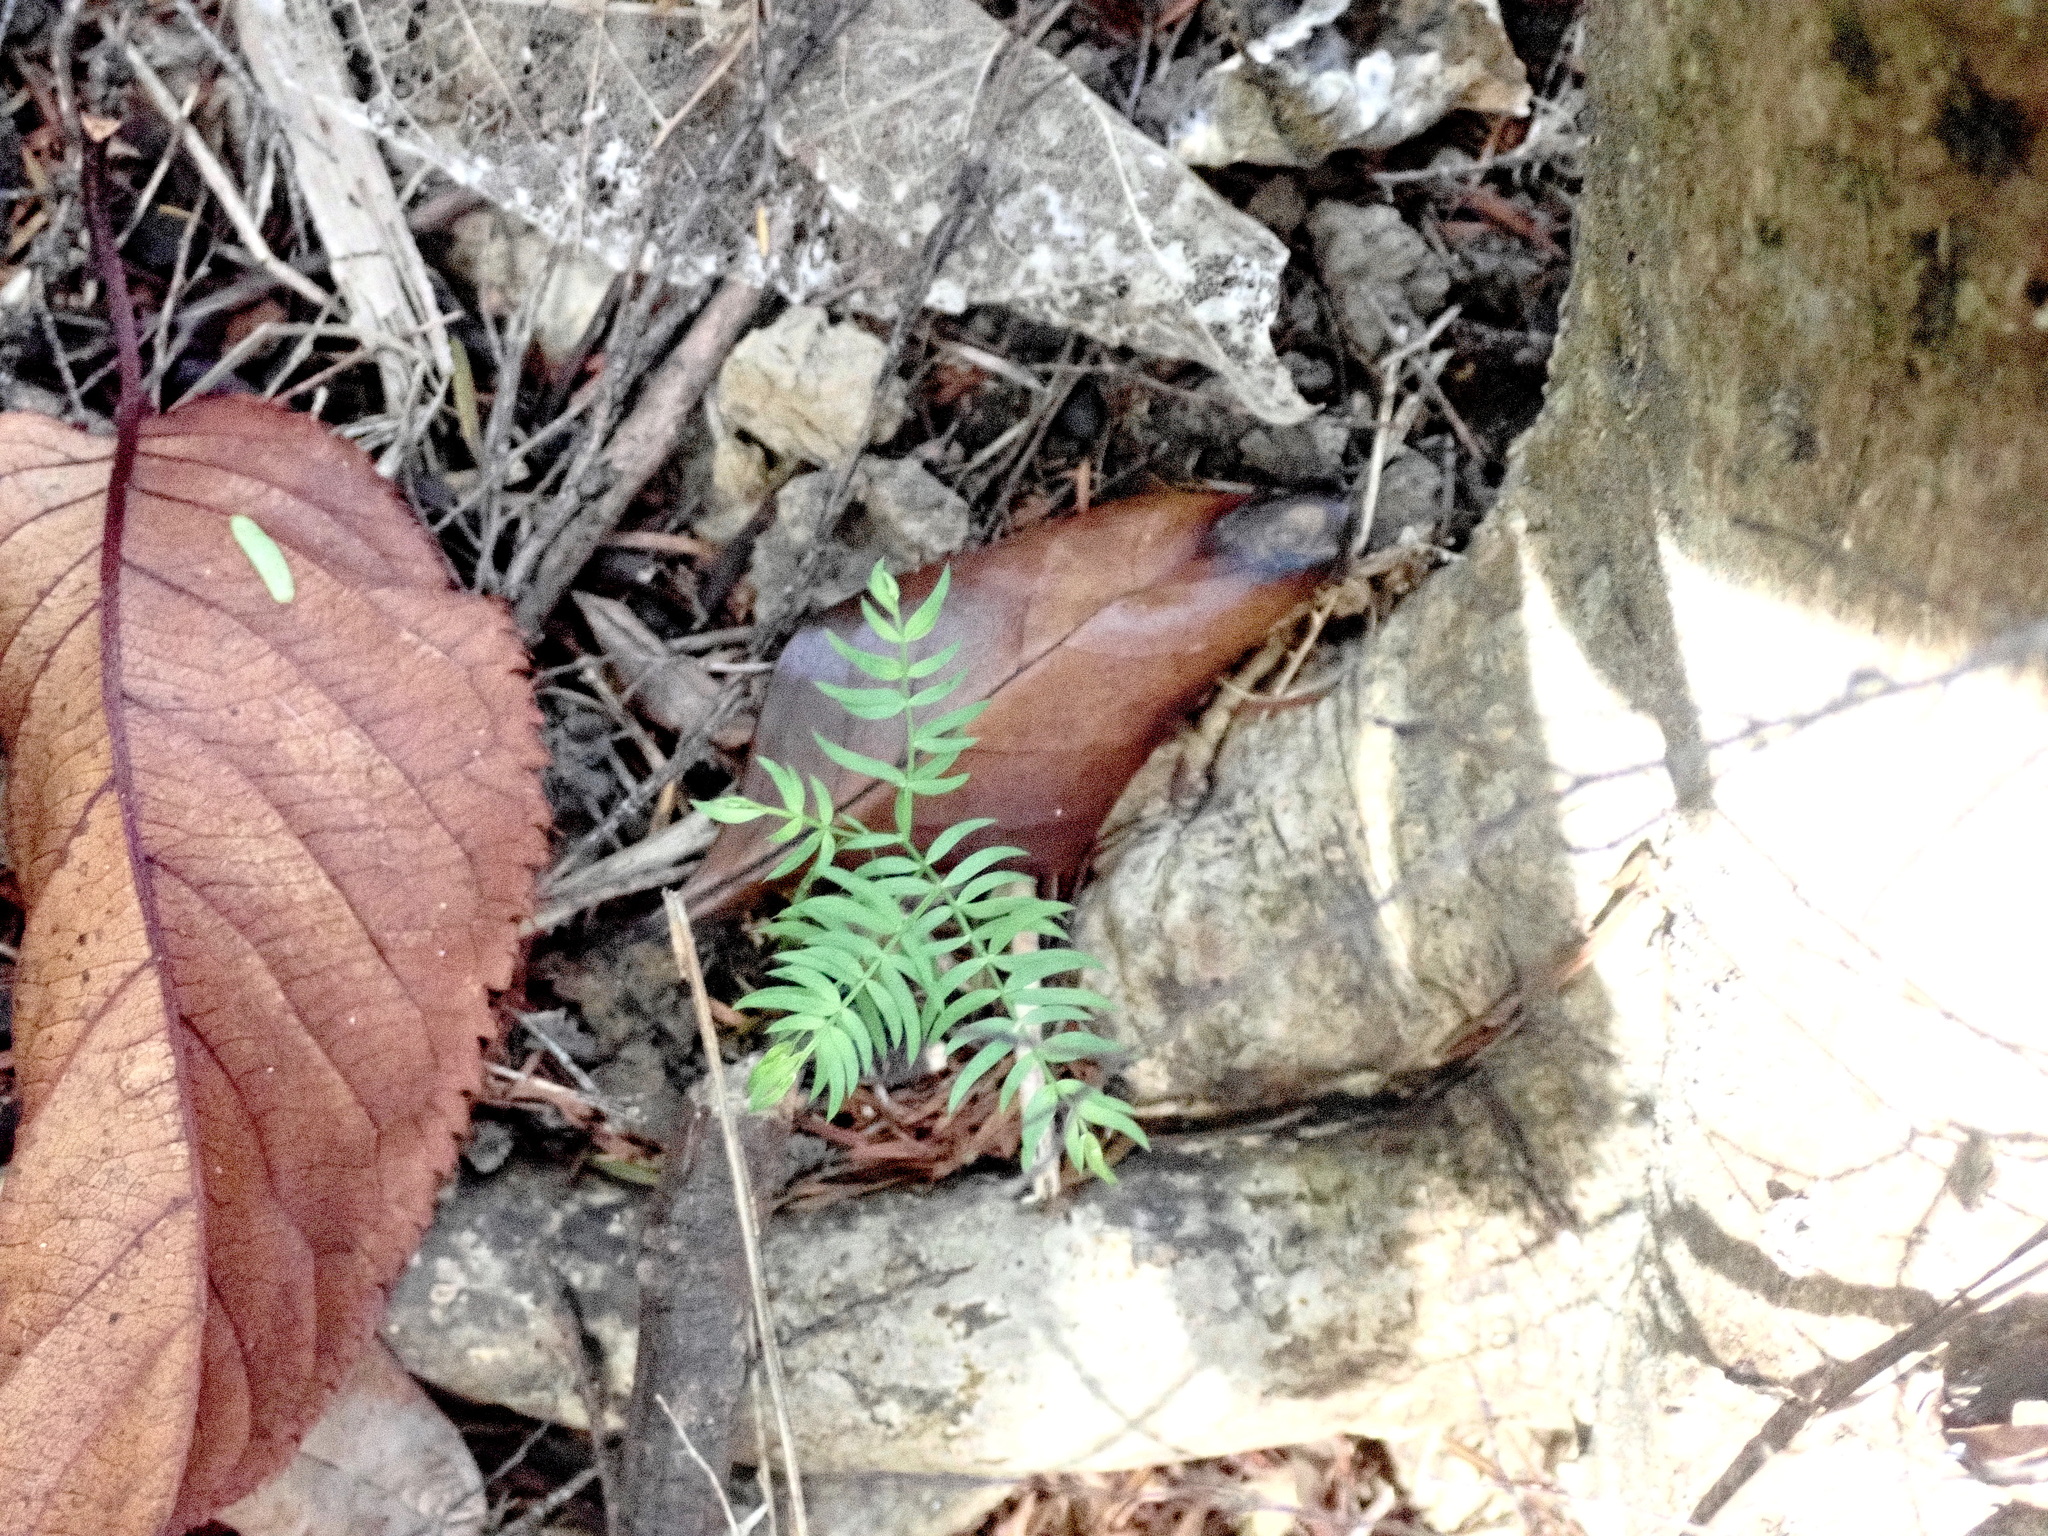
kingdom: Plantae
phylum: Tracheophyta
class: Liliopsida
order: Asparagales
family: Asparagaceae
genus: Asparagus
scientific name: Asparagus scandens
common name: Asparagus-fern
